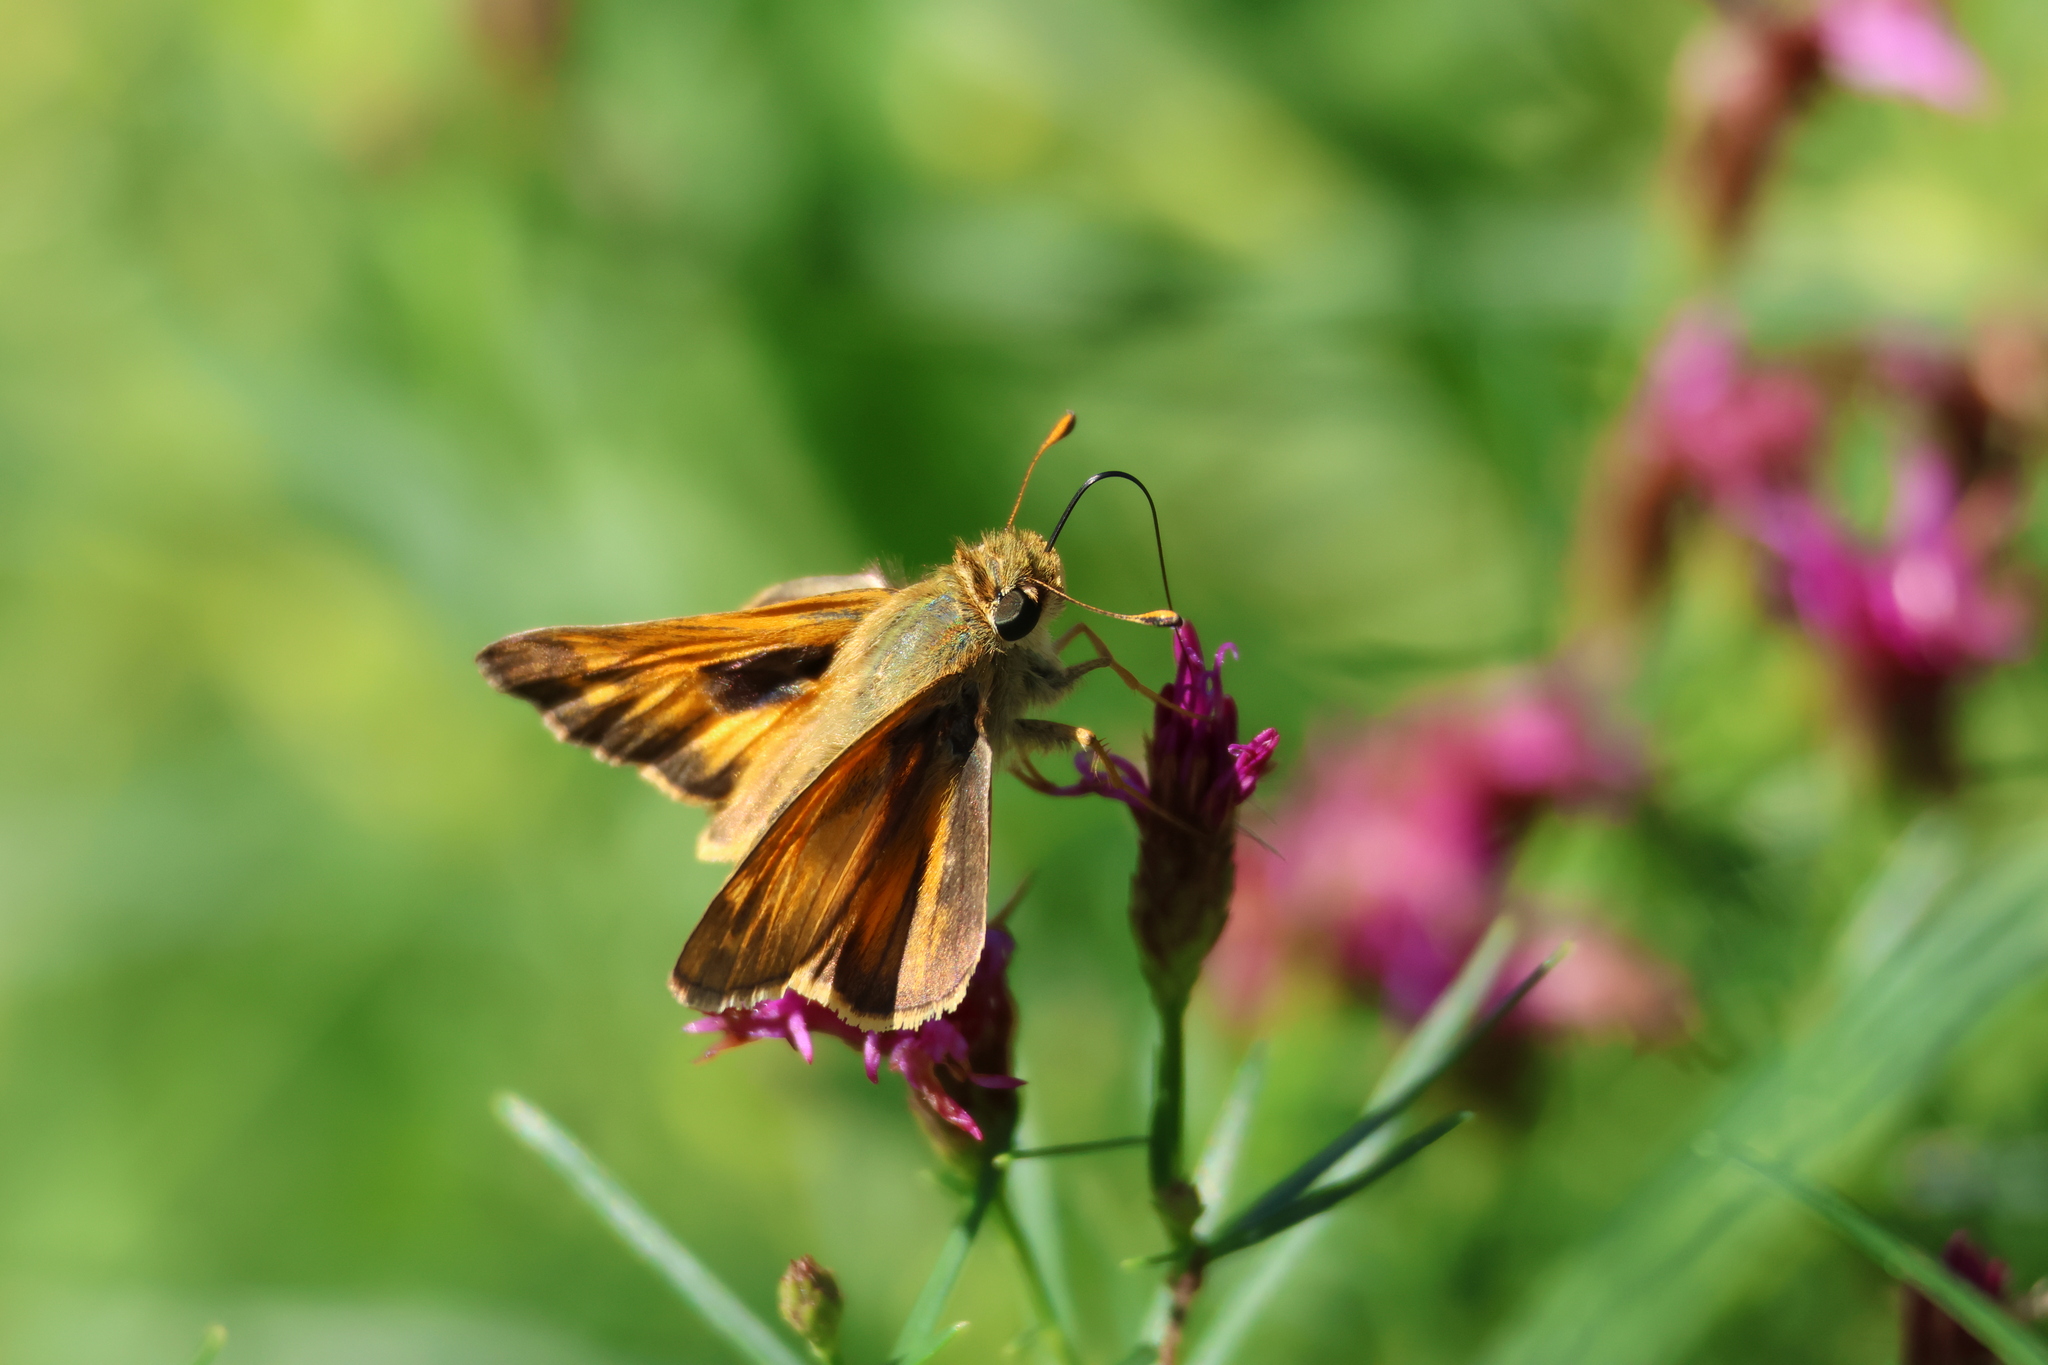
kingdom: Animalia
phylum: Arthropoda
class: Insecta
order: Lepidoptera
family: Hesperiidae
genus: Atalopedes
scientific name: Atalopedes
